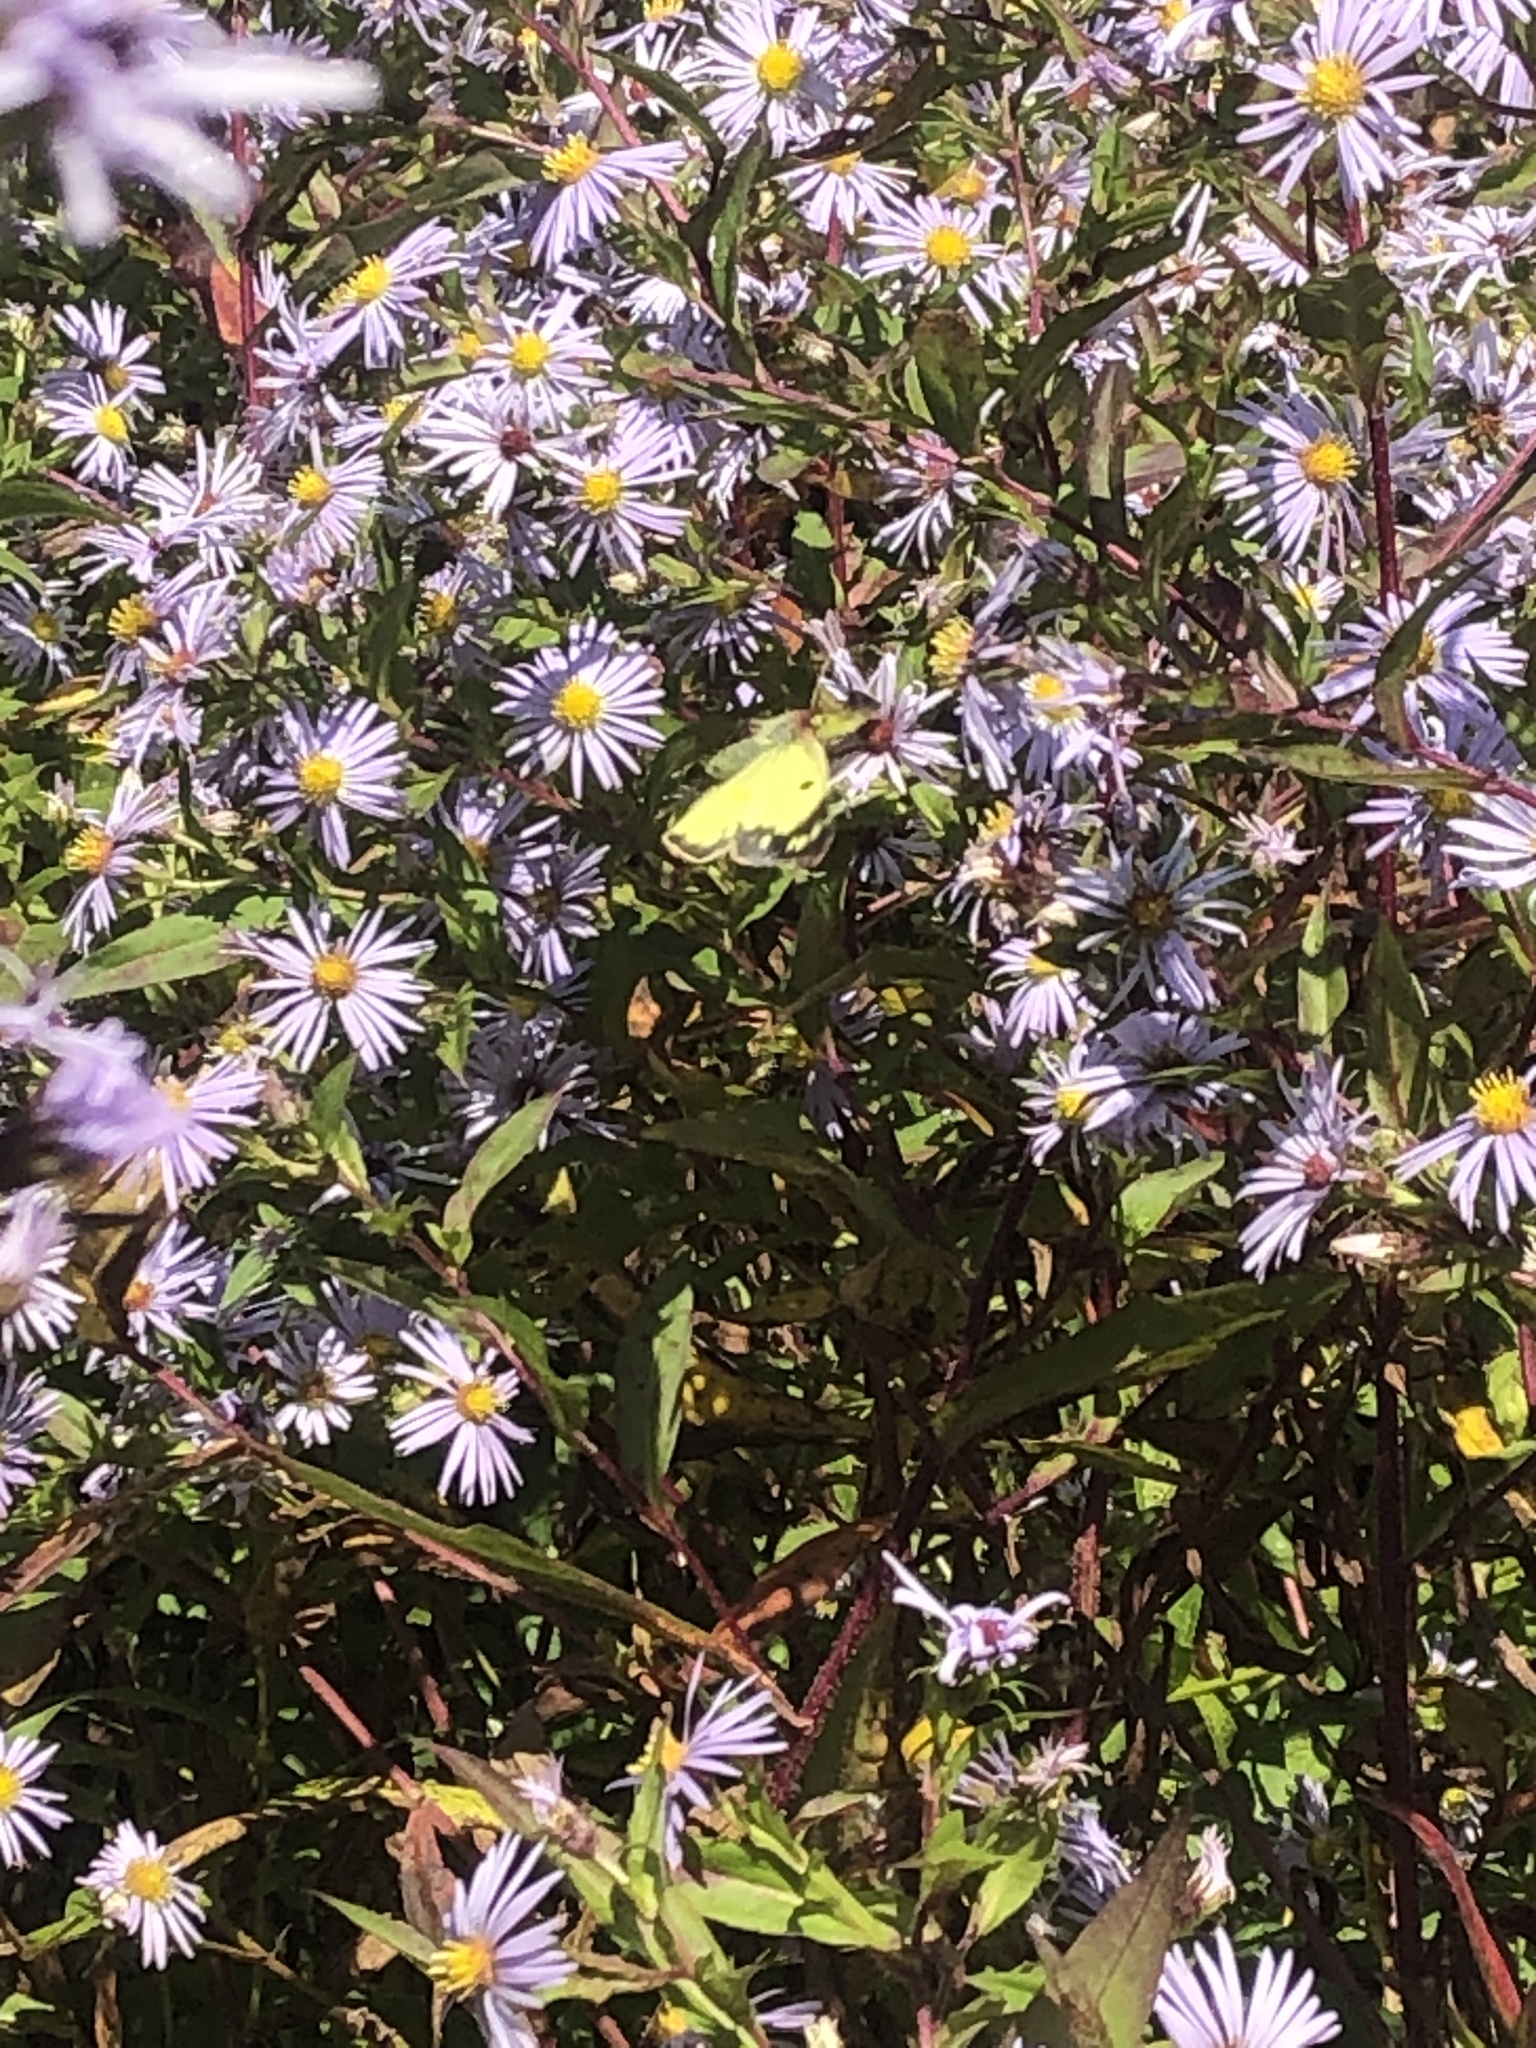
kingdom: Animalia
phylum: Arthropoda
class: Insecta
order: Lepidoptera
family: Pieridae
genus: Colias
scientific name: Colias philodice
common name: Clouded sulphur
